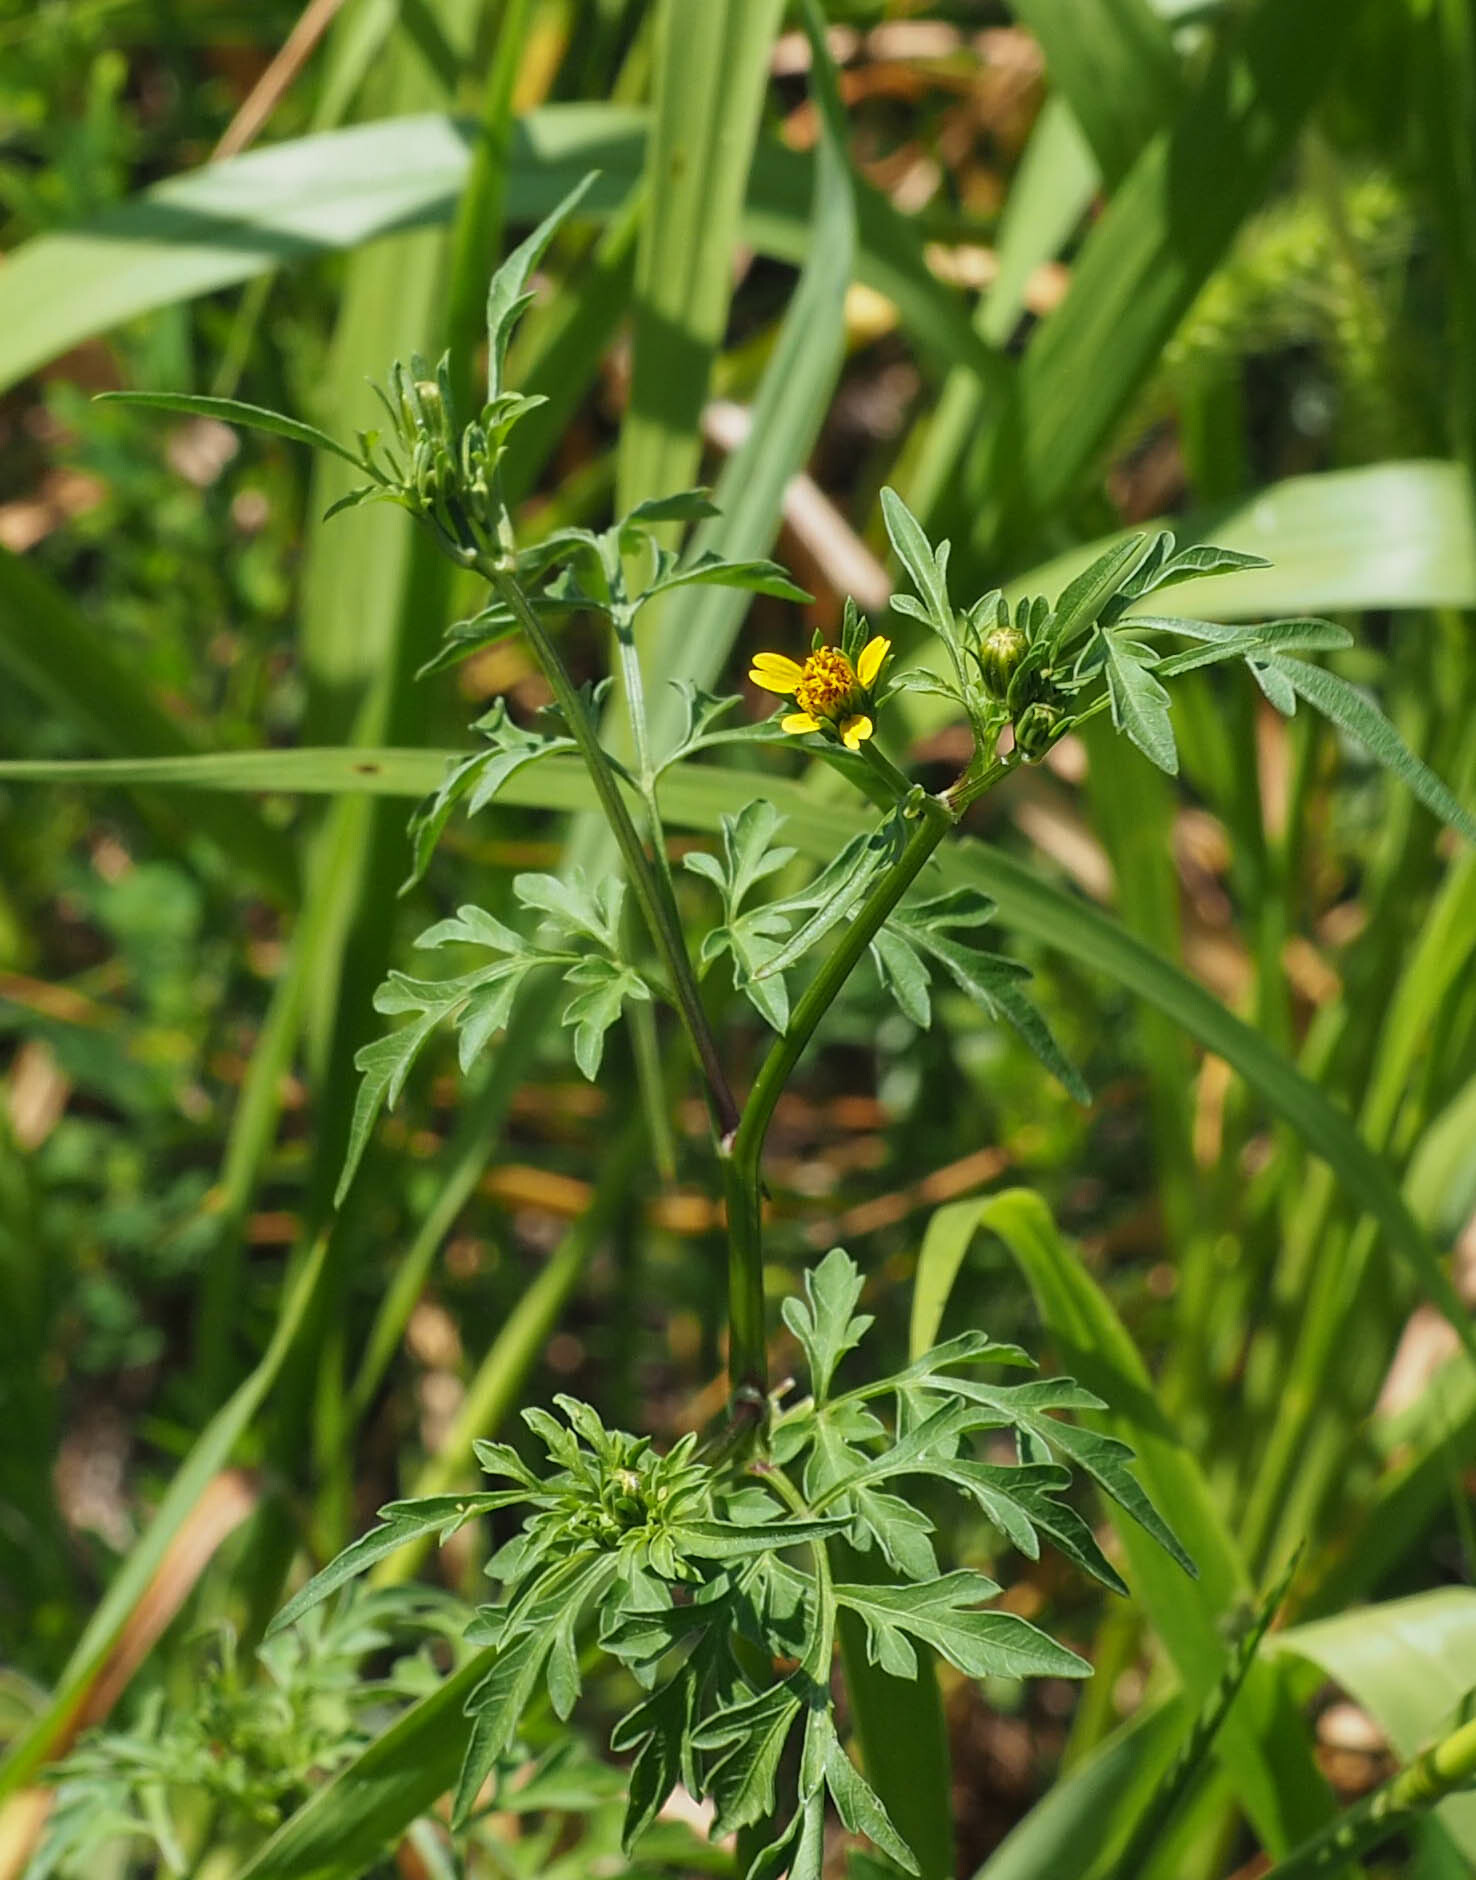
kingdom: Plantae
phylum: Tracheophyta
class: Magnoliopsida
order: Asterales
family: Asteraceae
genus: Bidens
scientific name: Bidens bipinnata
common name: Spanish-needles
